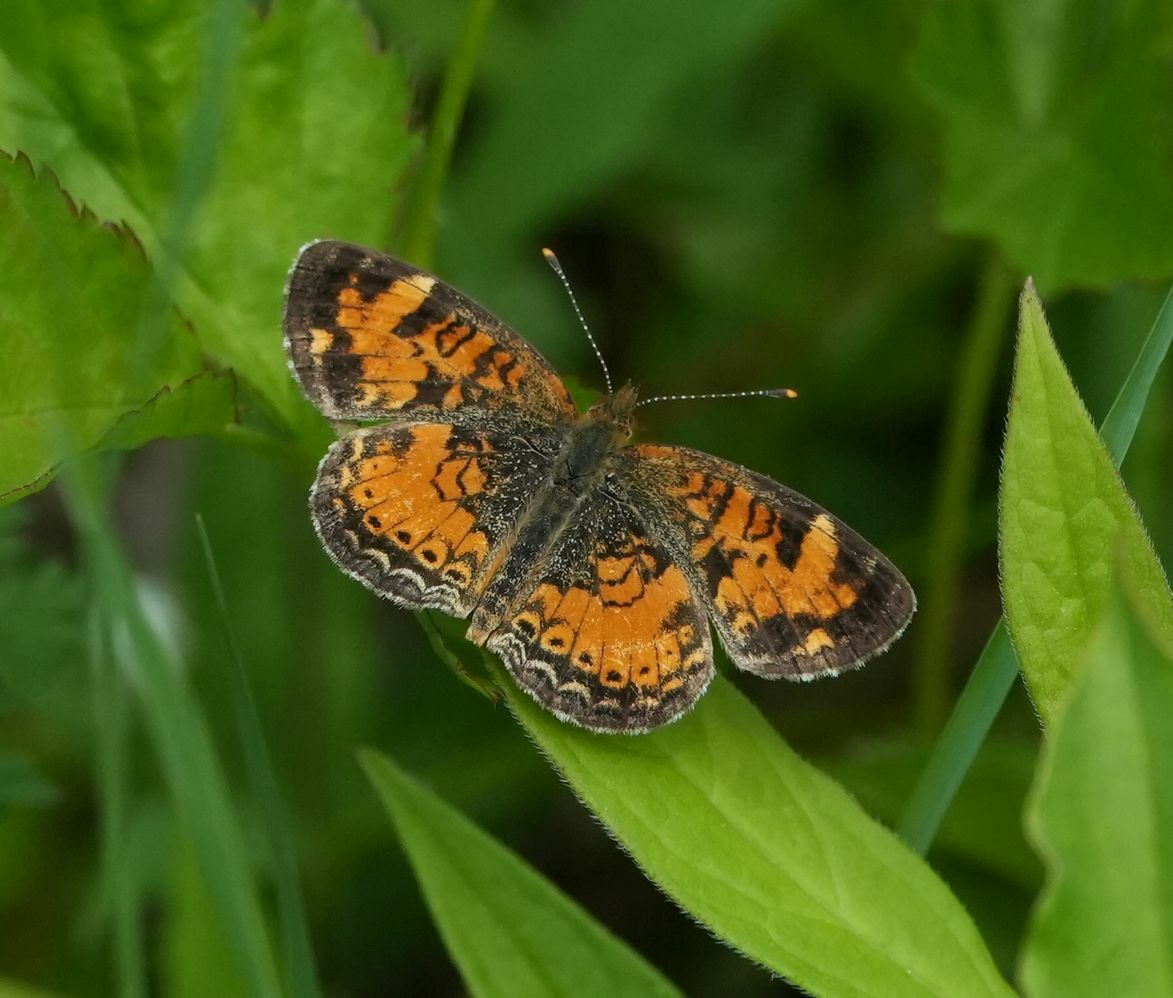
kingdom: Animalia
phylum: Arthropoda
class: Insecta
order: Lepidoptera
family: Nymphalidae
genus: Phyciodes
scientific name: Phyciodes tharos
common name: Pearl crescent
